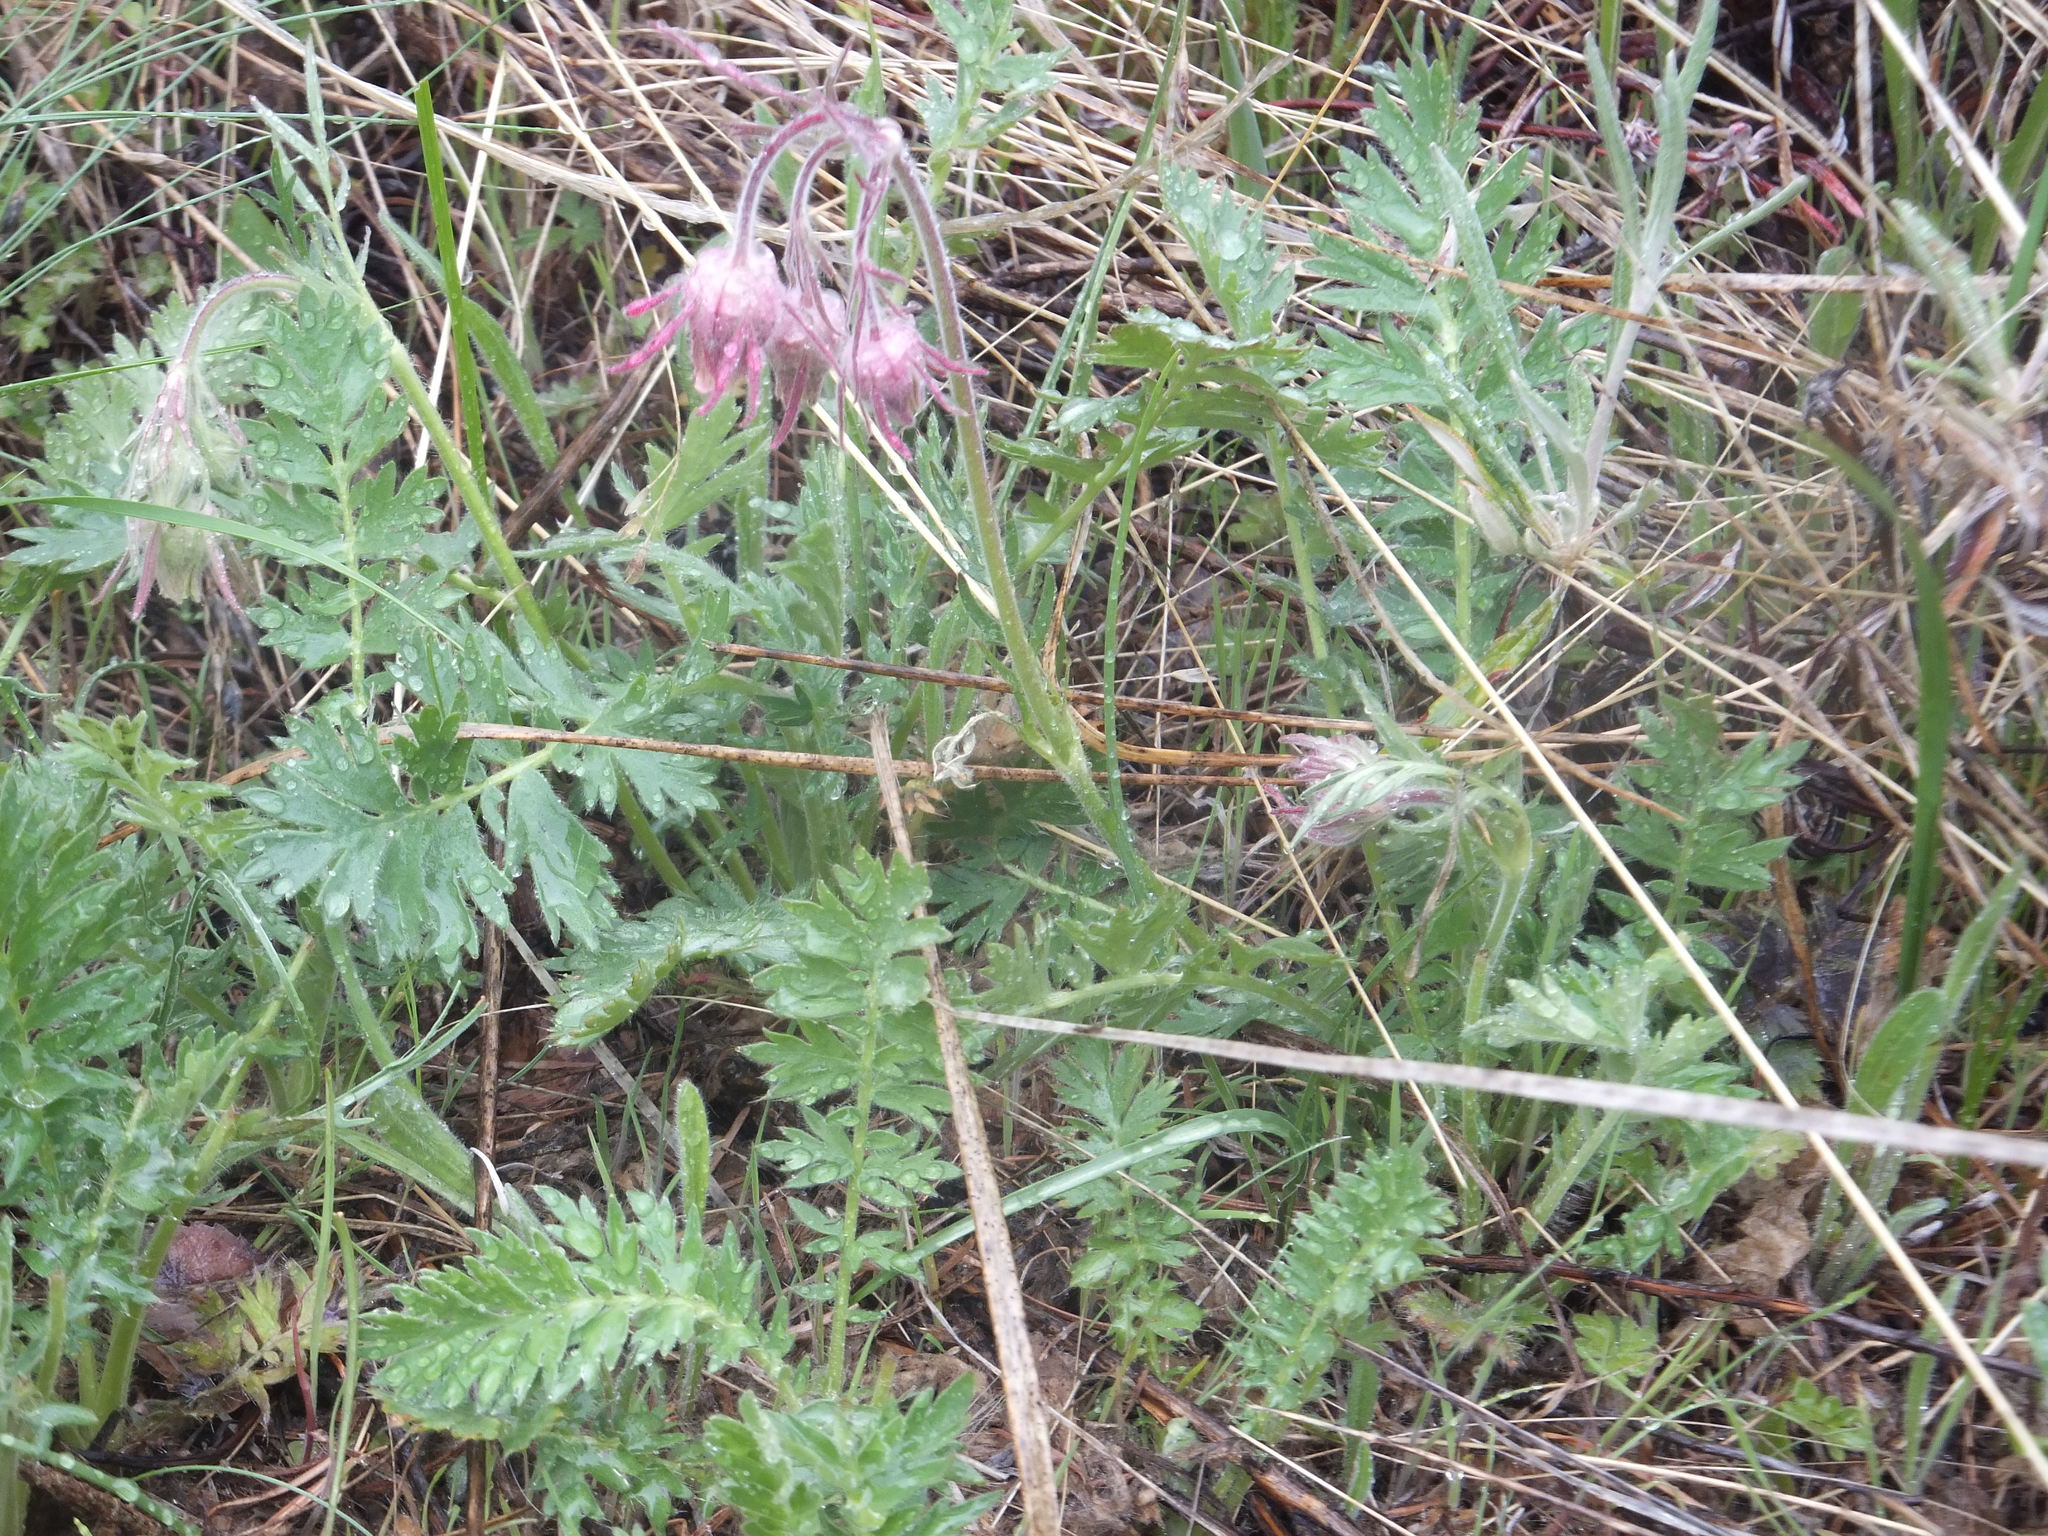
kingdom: Plantae
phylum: Tracheophyta
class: Magnoliopsida
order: Rosales
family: Rosaceae
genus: Geum
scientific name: Geum triflorum
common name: Old man's whiskers
